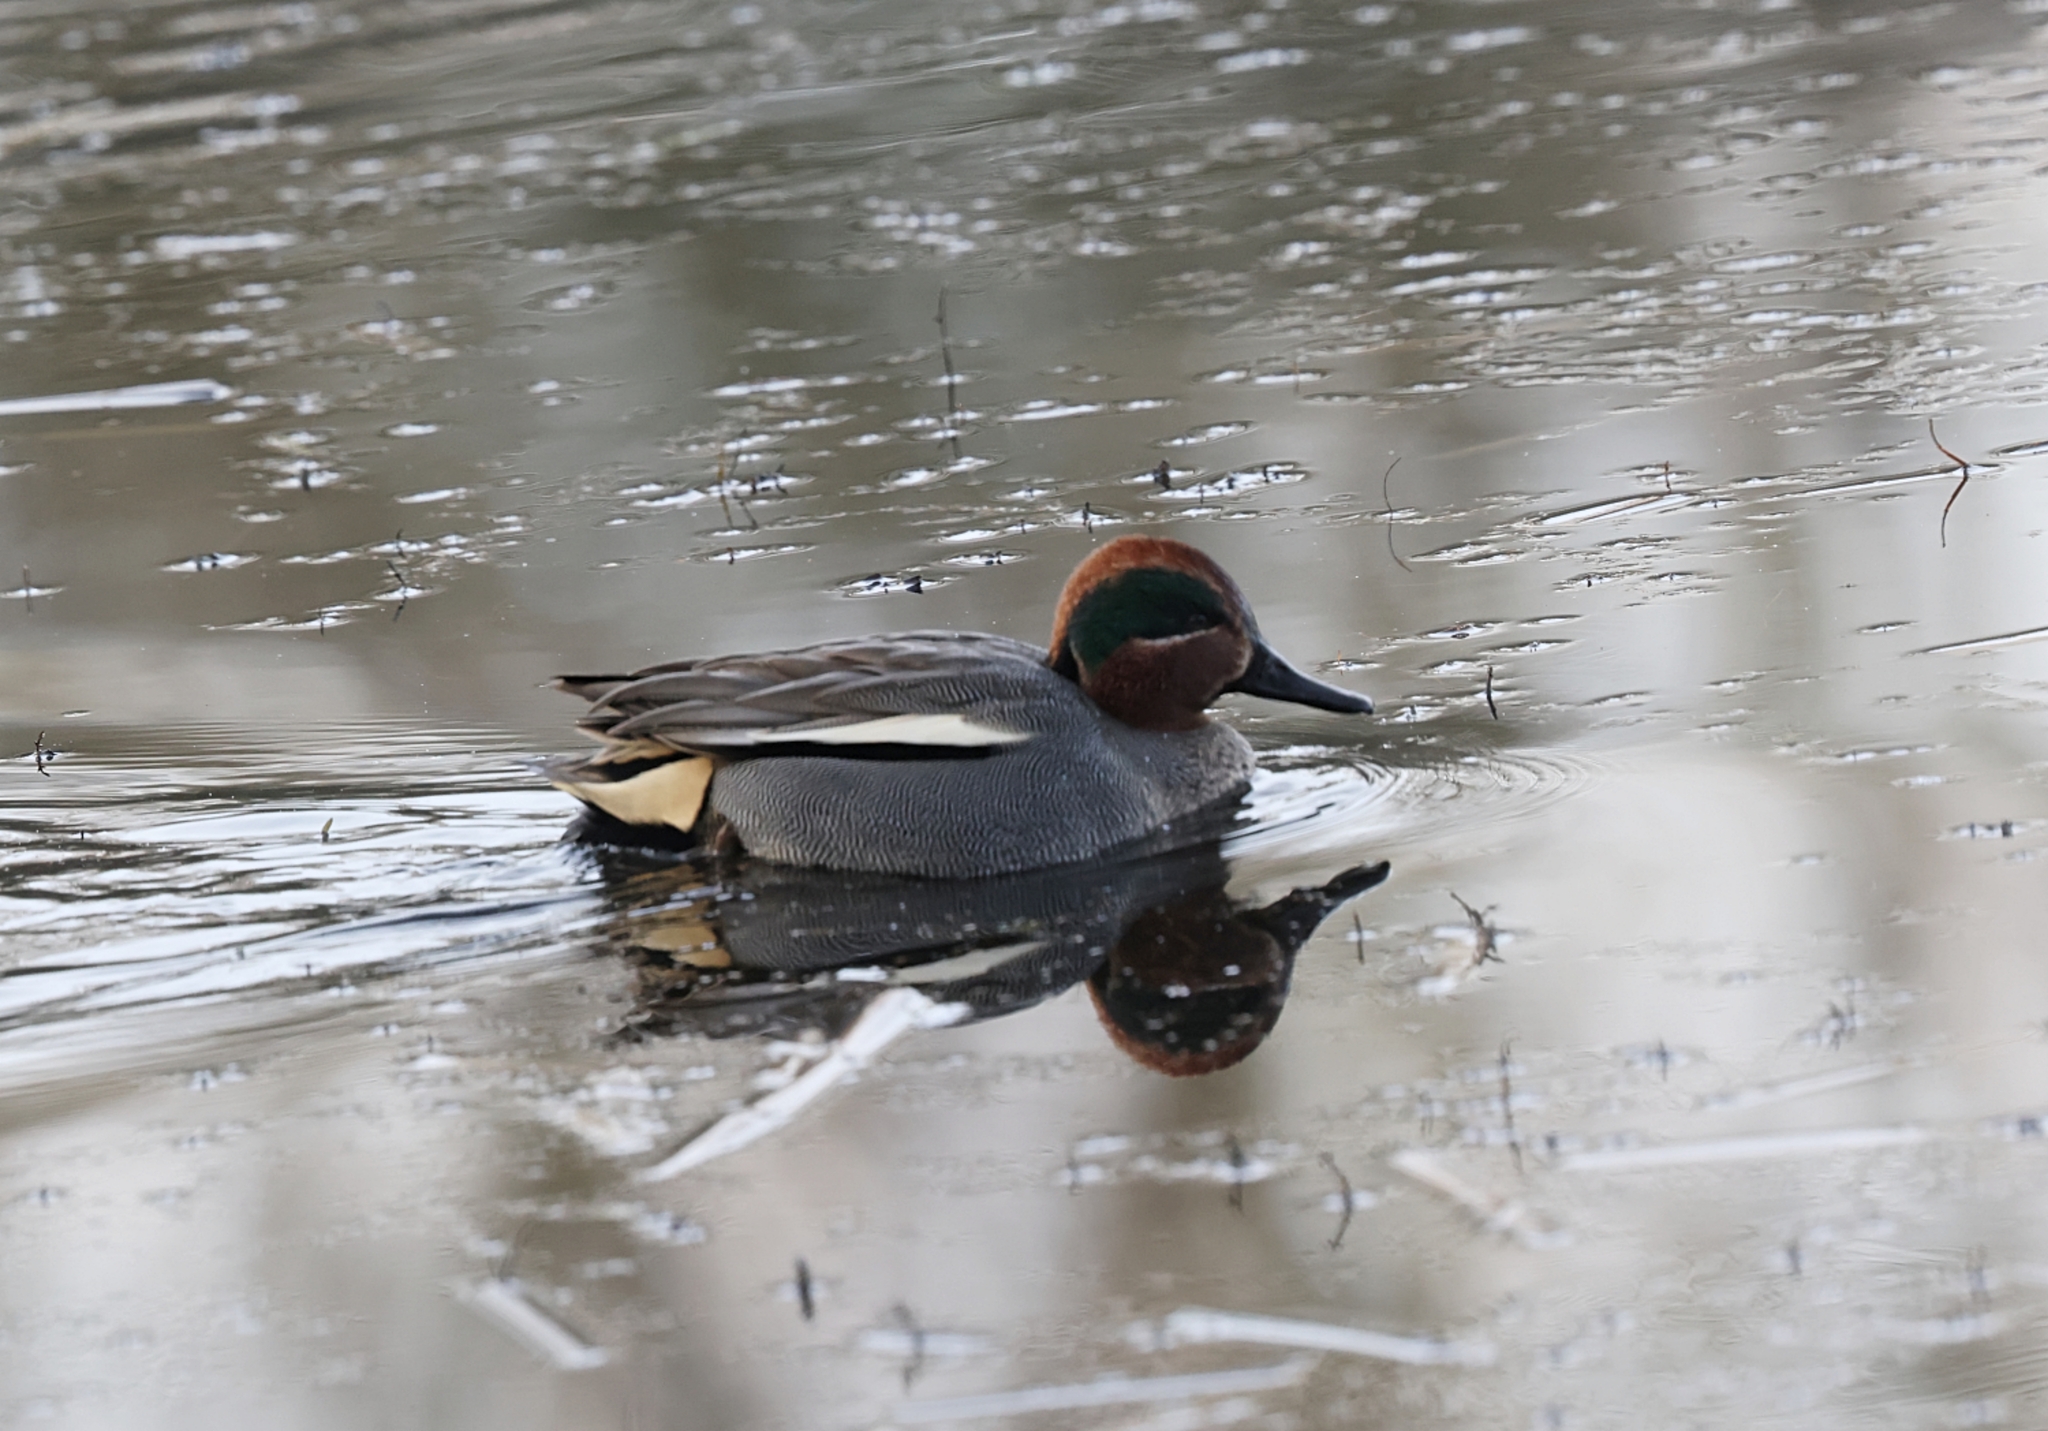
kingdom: Animalia
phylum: Chordata
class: Aves
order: Anseriformes
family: Anatidae
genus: Anas
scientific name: Anas crecca
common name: Eurasian teal
